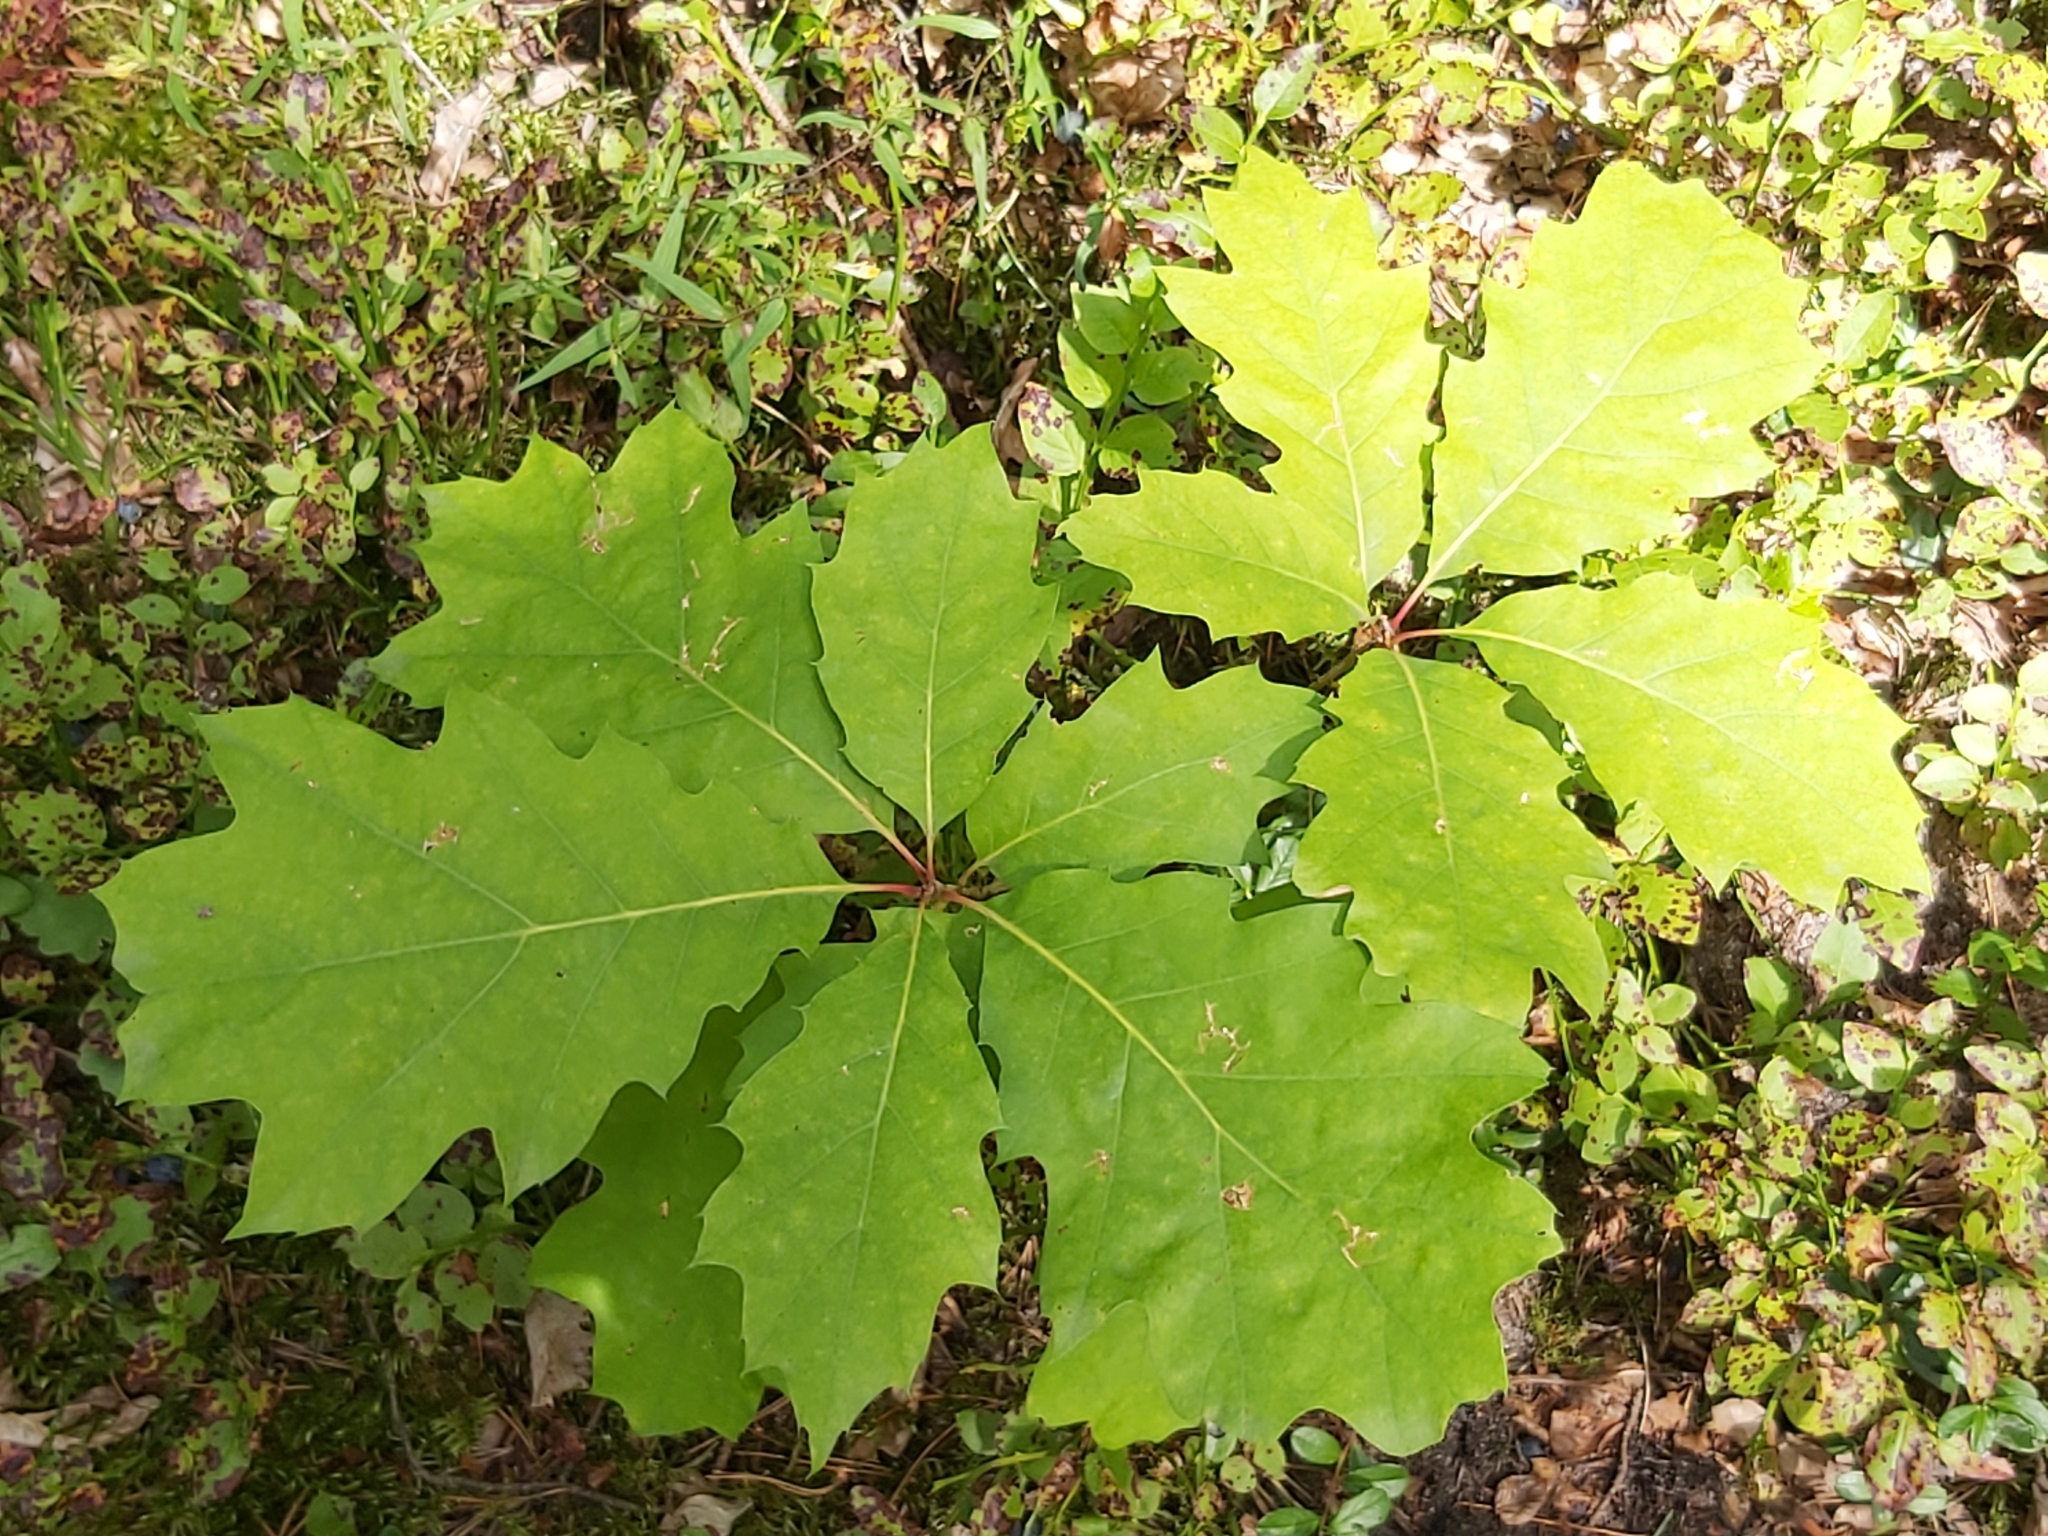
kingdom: Plantae
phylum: Tracheophyta
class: Magnoliopsida
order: Fagales
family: Fagaceae
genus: Quercus
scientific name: Quercus rubra
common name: Red oak
